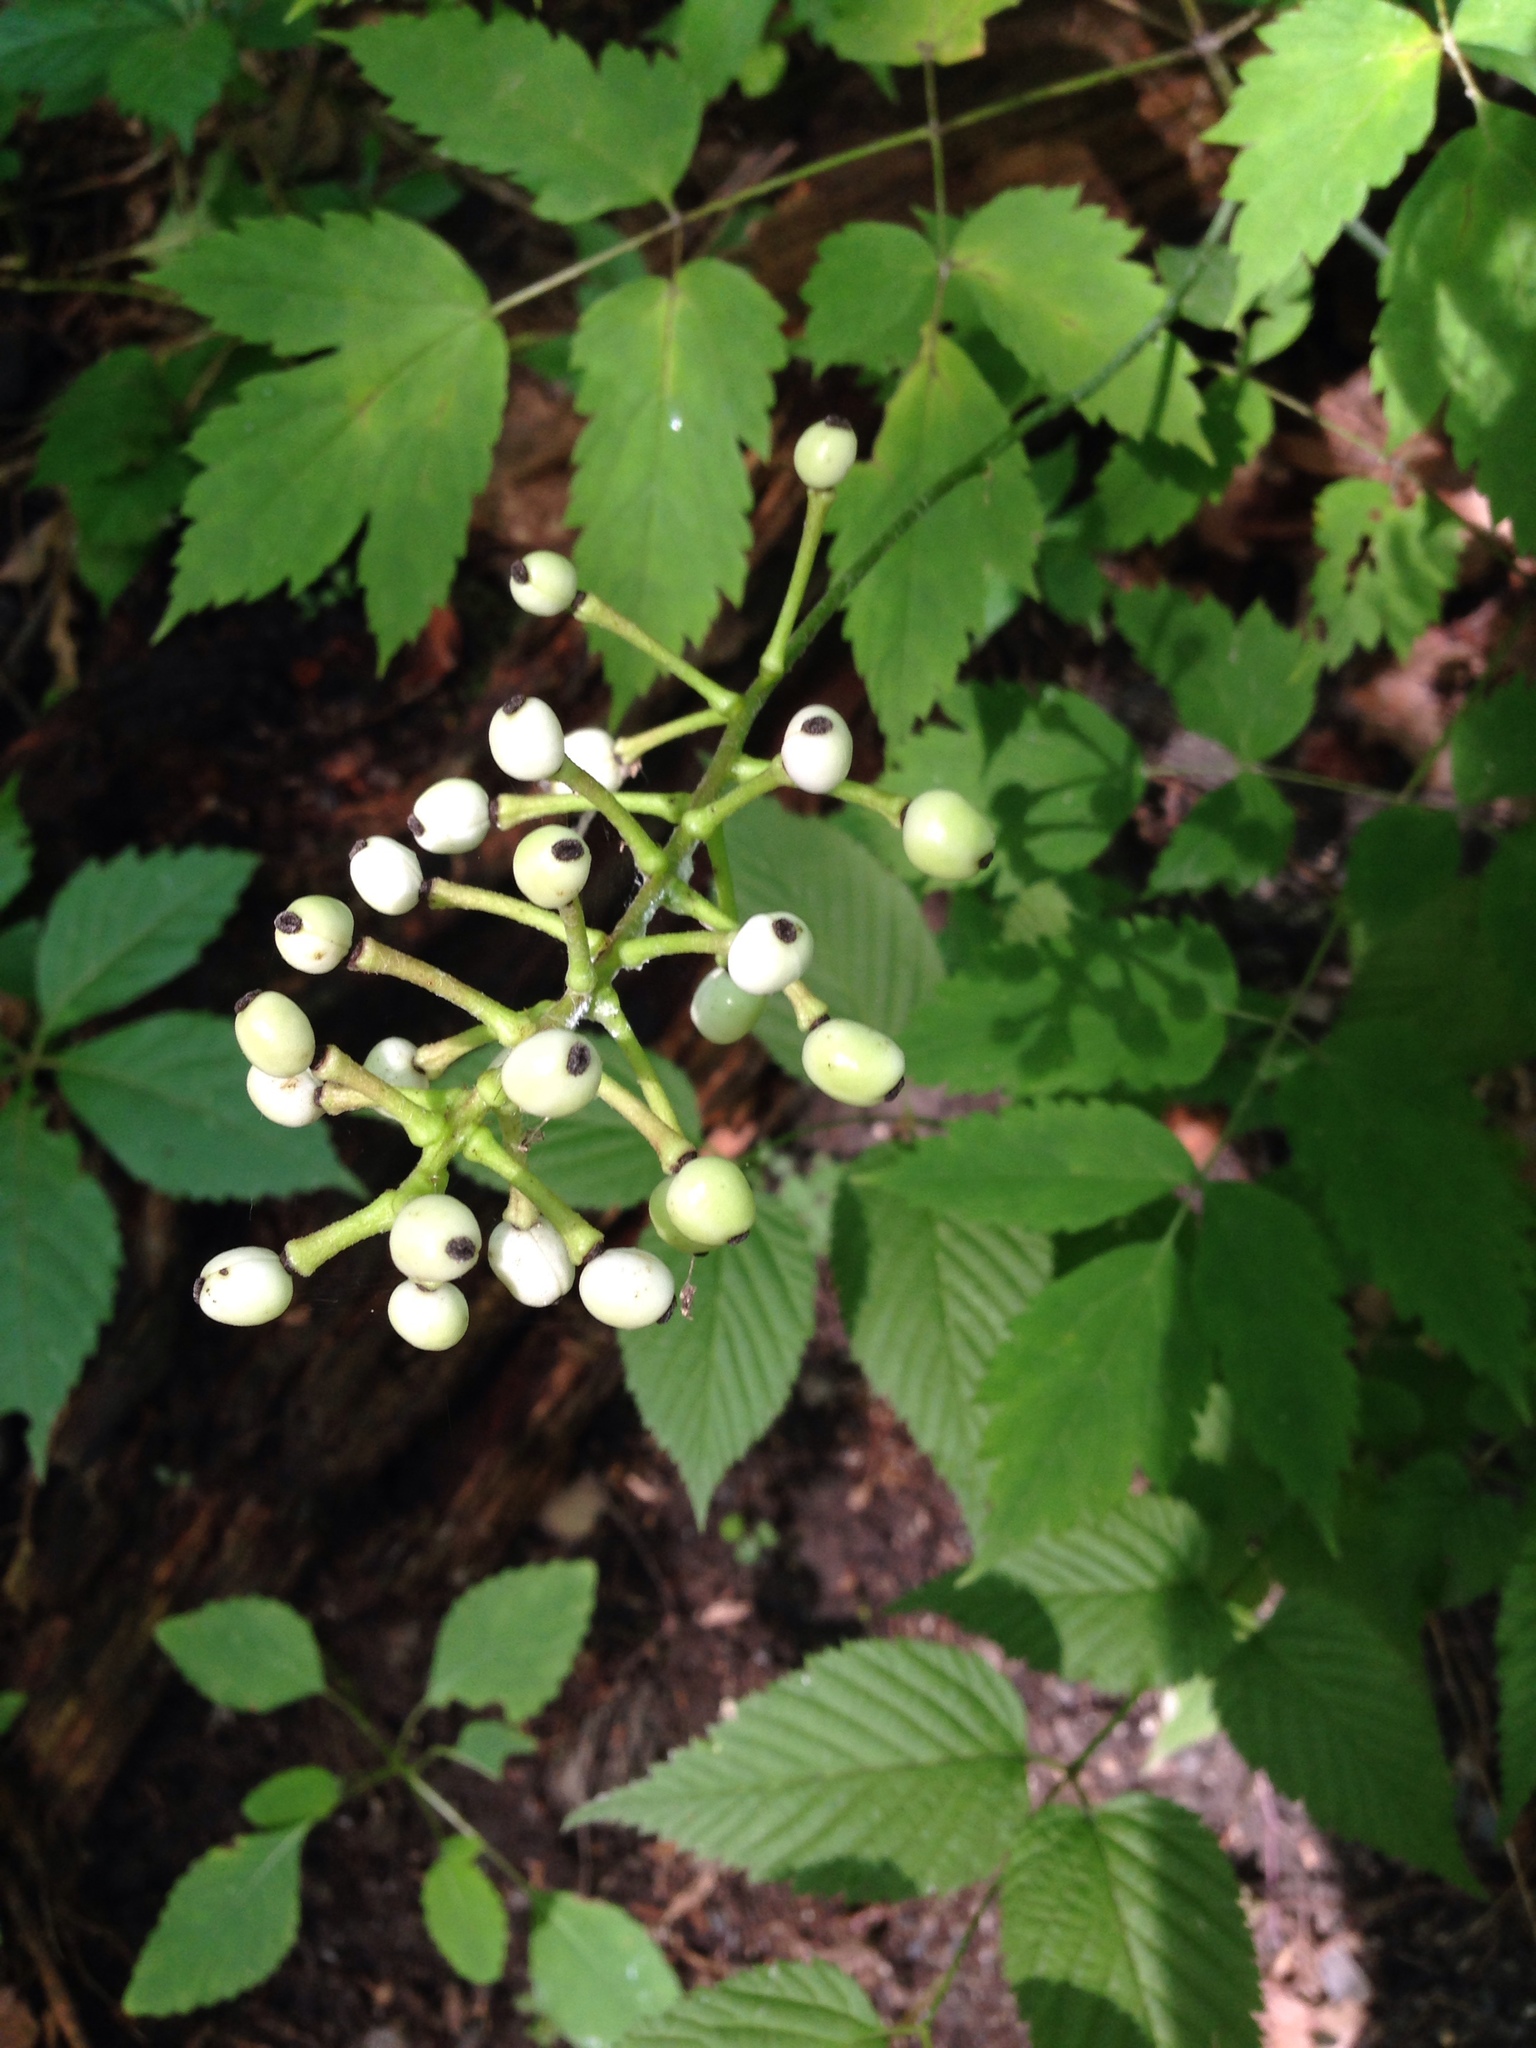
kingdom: Plantae
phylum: Tracheophyta
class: Magnoliopsida
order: Ranunculales
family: Ranunculaceae
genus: Actaea
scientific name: Actaea pachypoda
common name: Doll's-eyes
